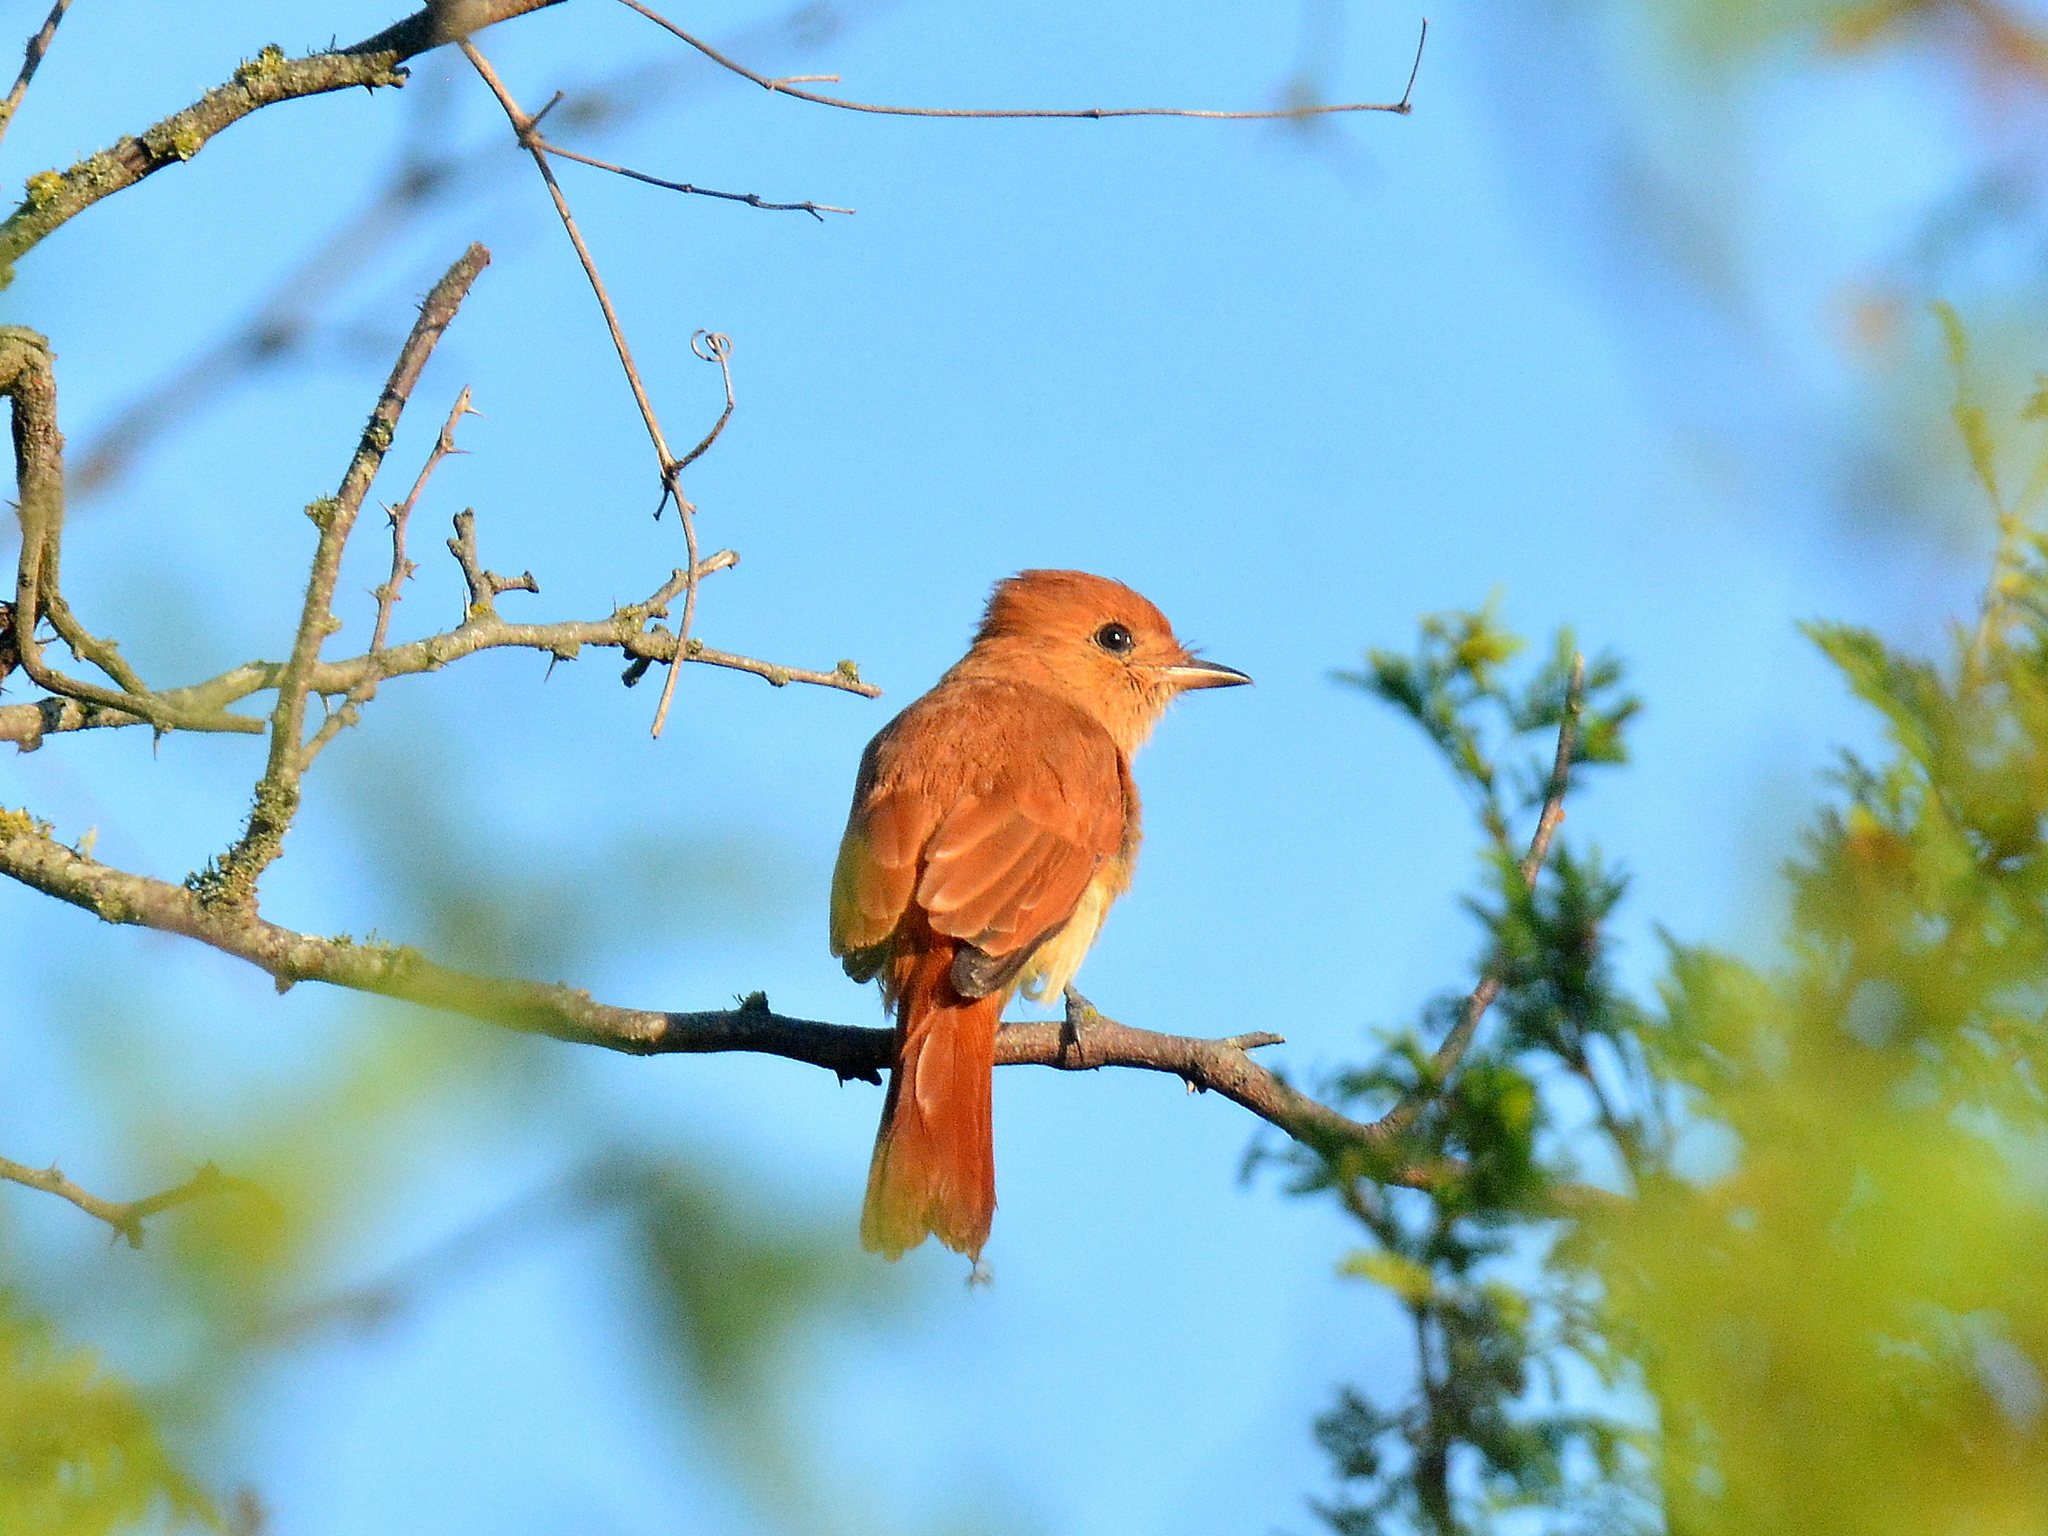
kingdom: Animalia
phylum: Chordata
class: Aves
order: Passeriformes
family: Tyrannidae
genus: Casiornis
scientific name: Casiornis rufus
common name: Rufous casiornis
